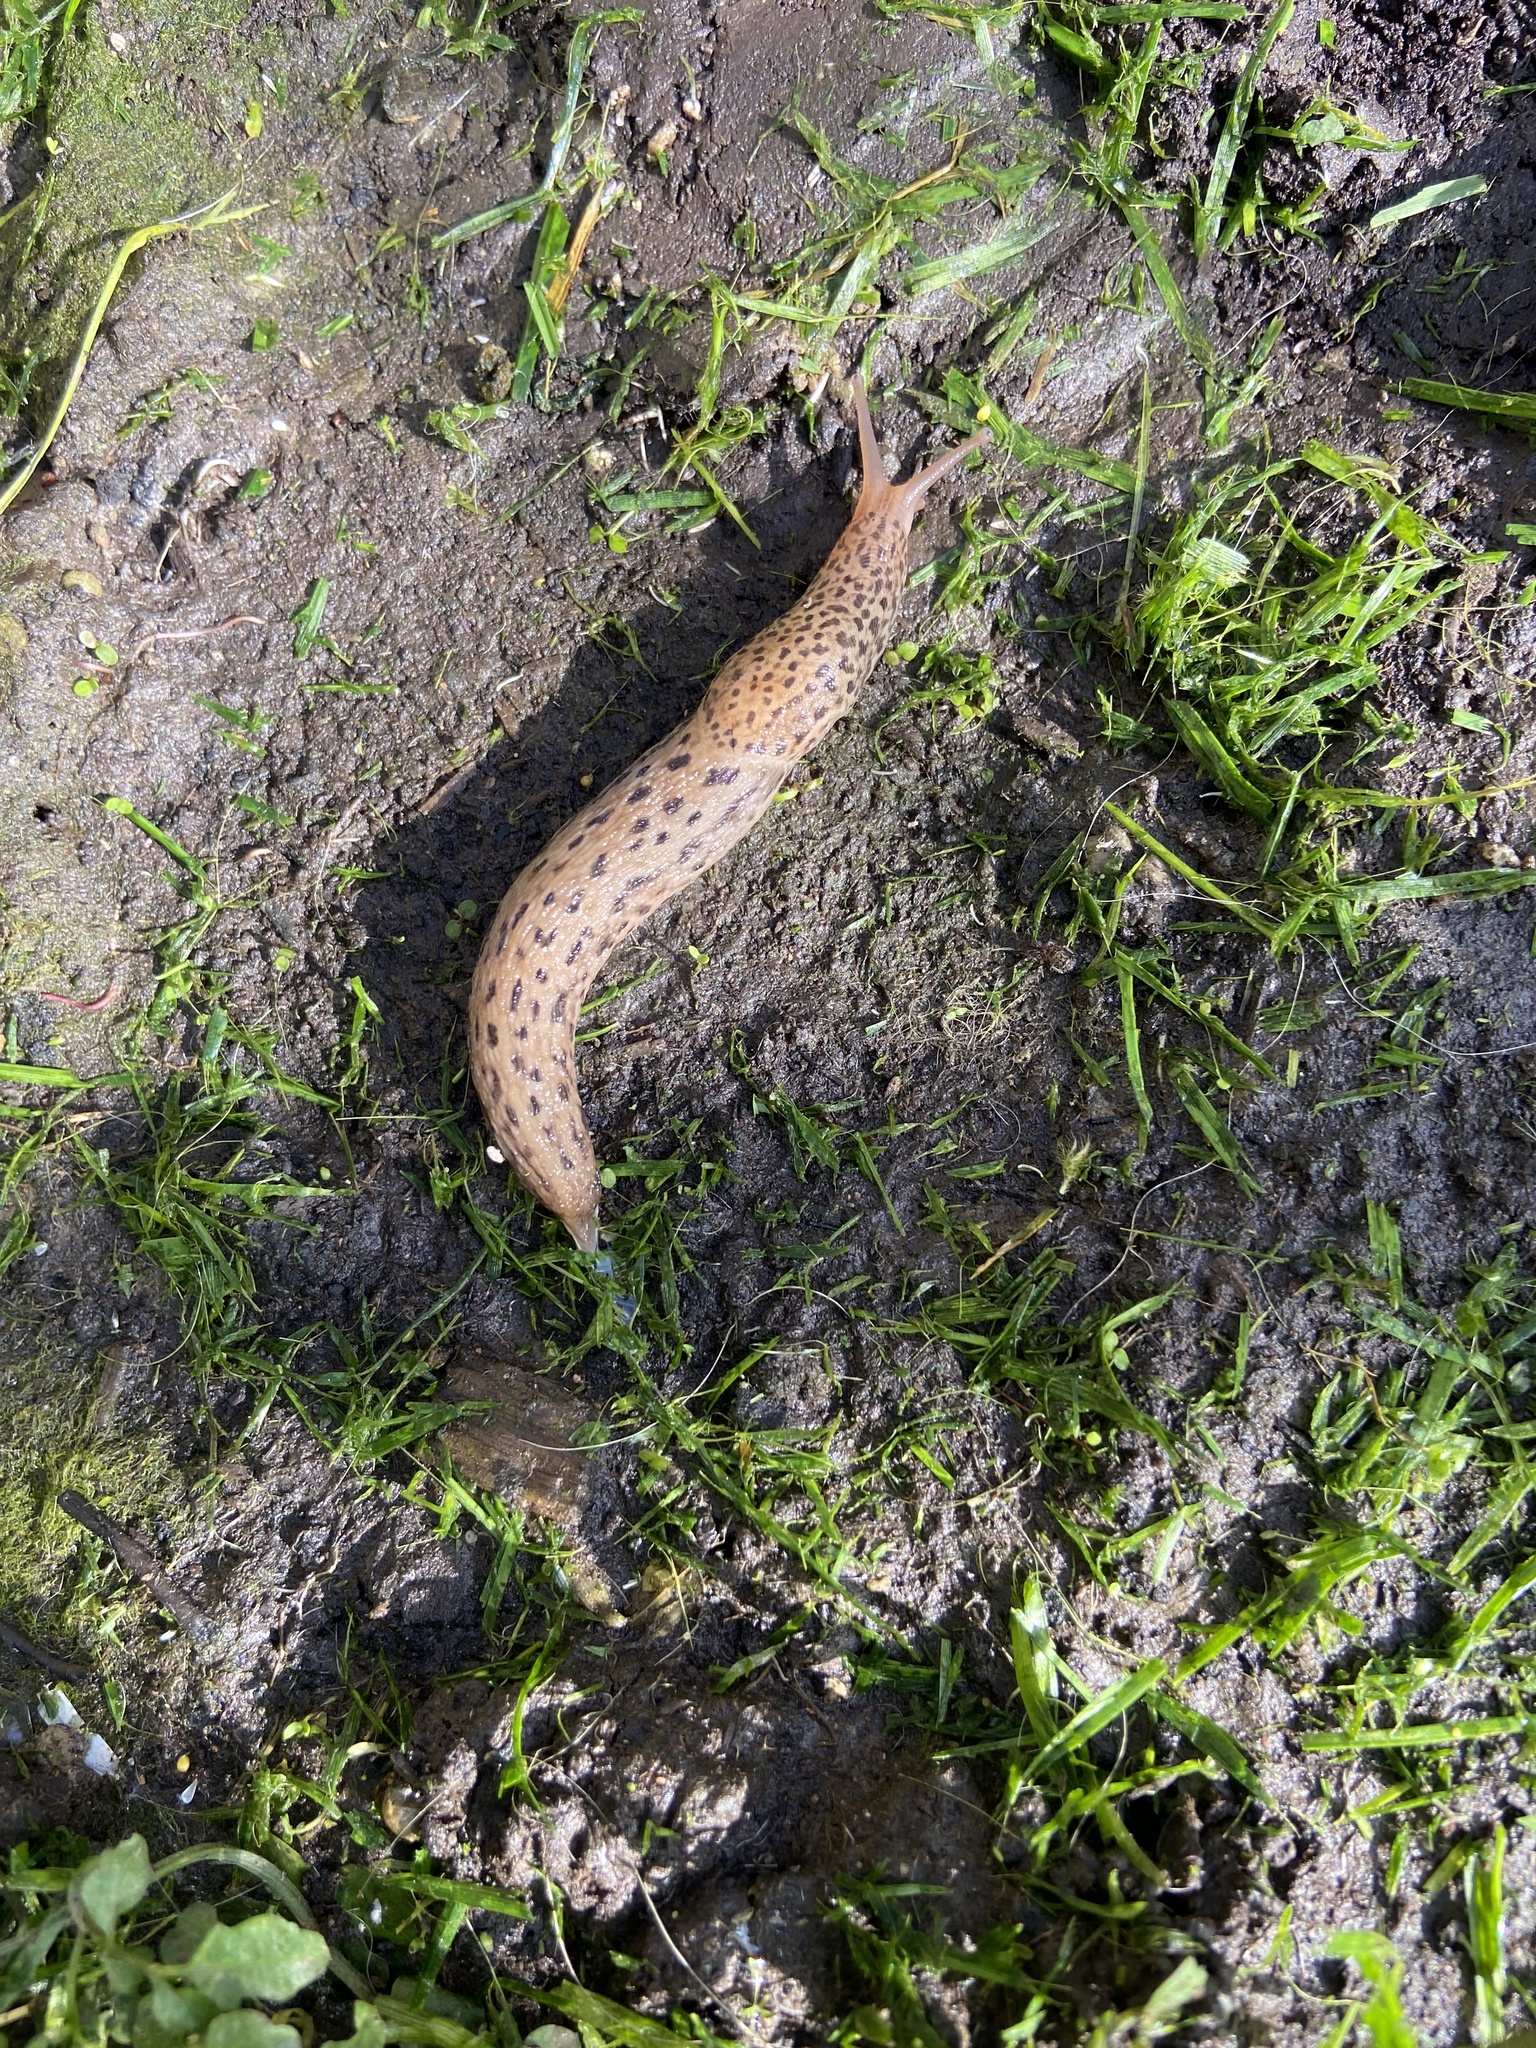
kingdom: Animalia
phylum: Mollusca
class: Gastropoda
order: Stylommatophora
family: Limacidae
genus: Limax
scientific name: Limax maximus
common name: Great grey slug
